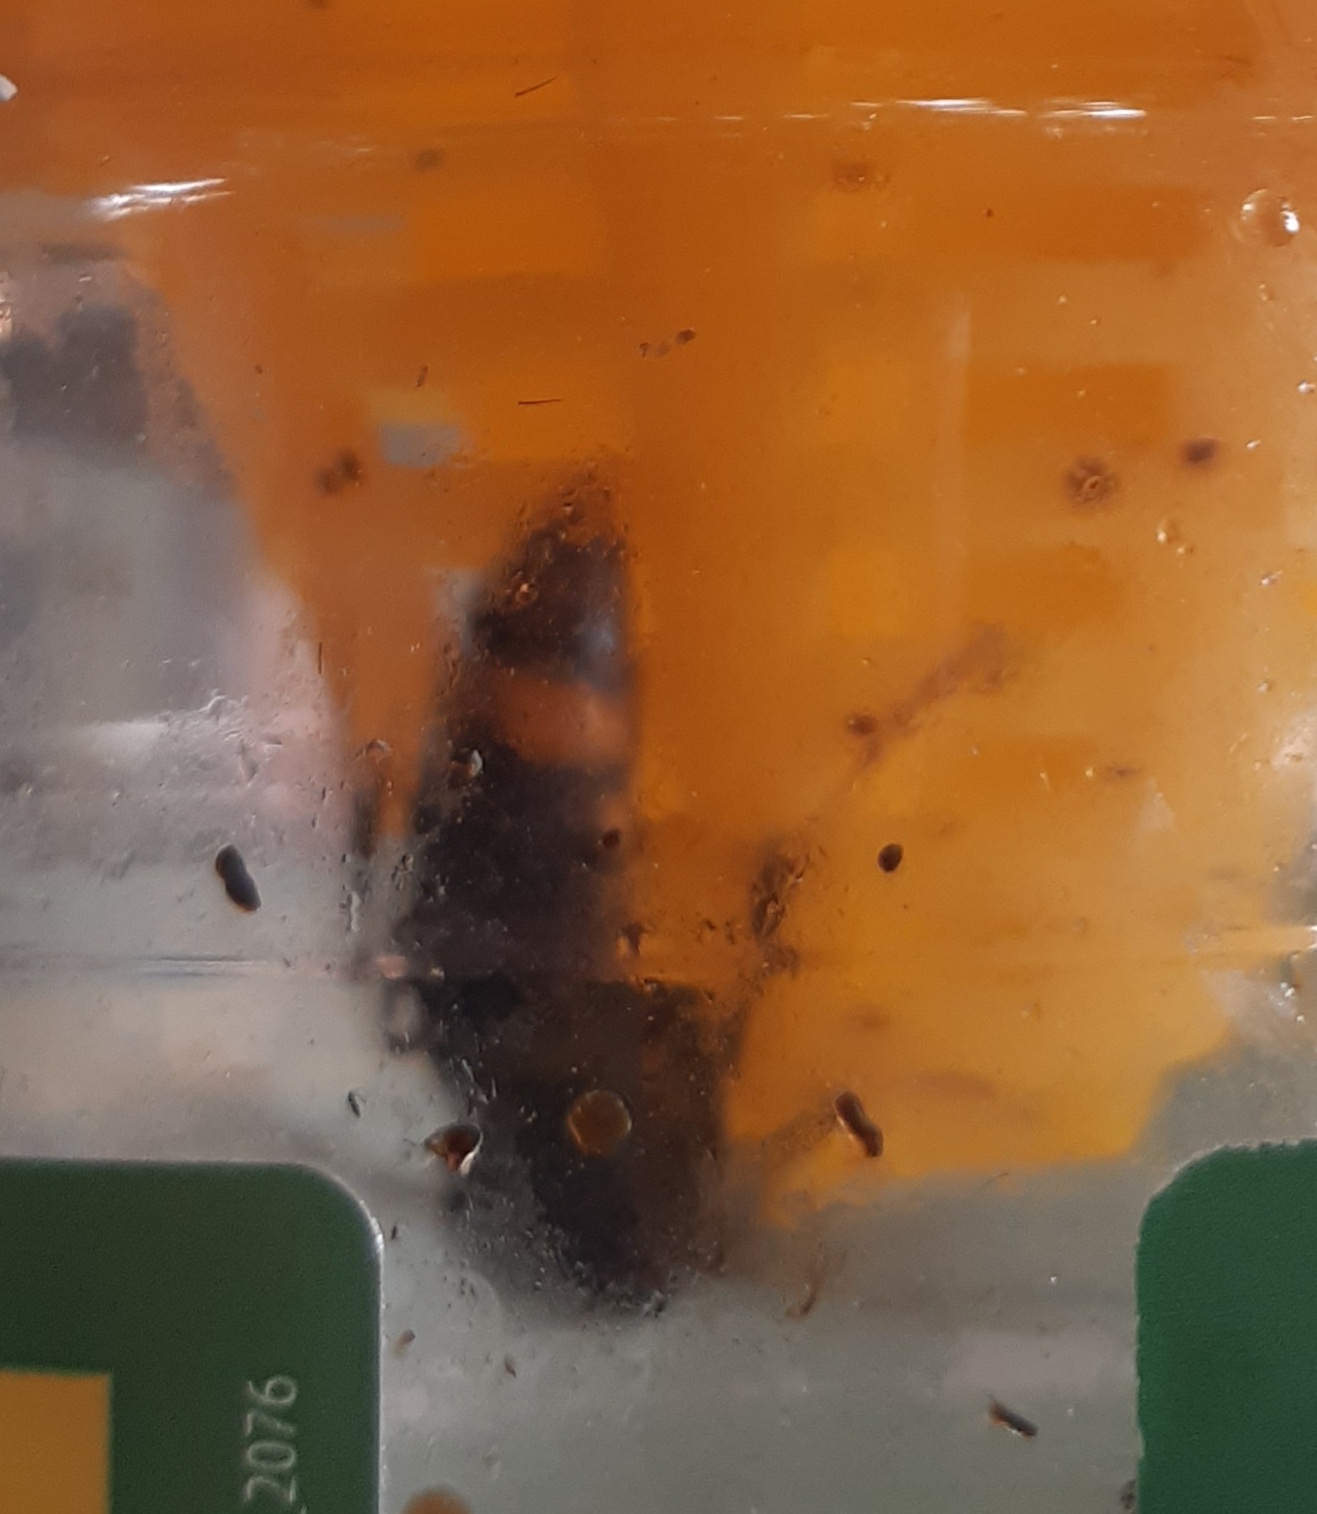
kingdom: Animalia
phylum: Arthropoda
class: Insecta
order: Hymenoptera
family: Vespidae
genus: Vespa
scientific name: Vespa velutina
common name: Asian hornet
